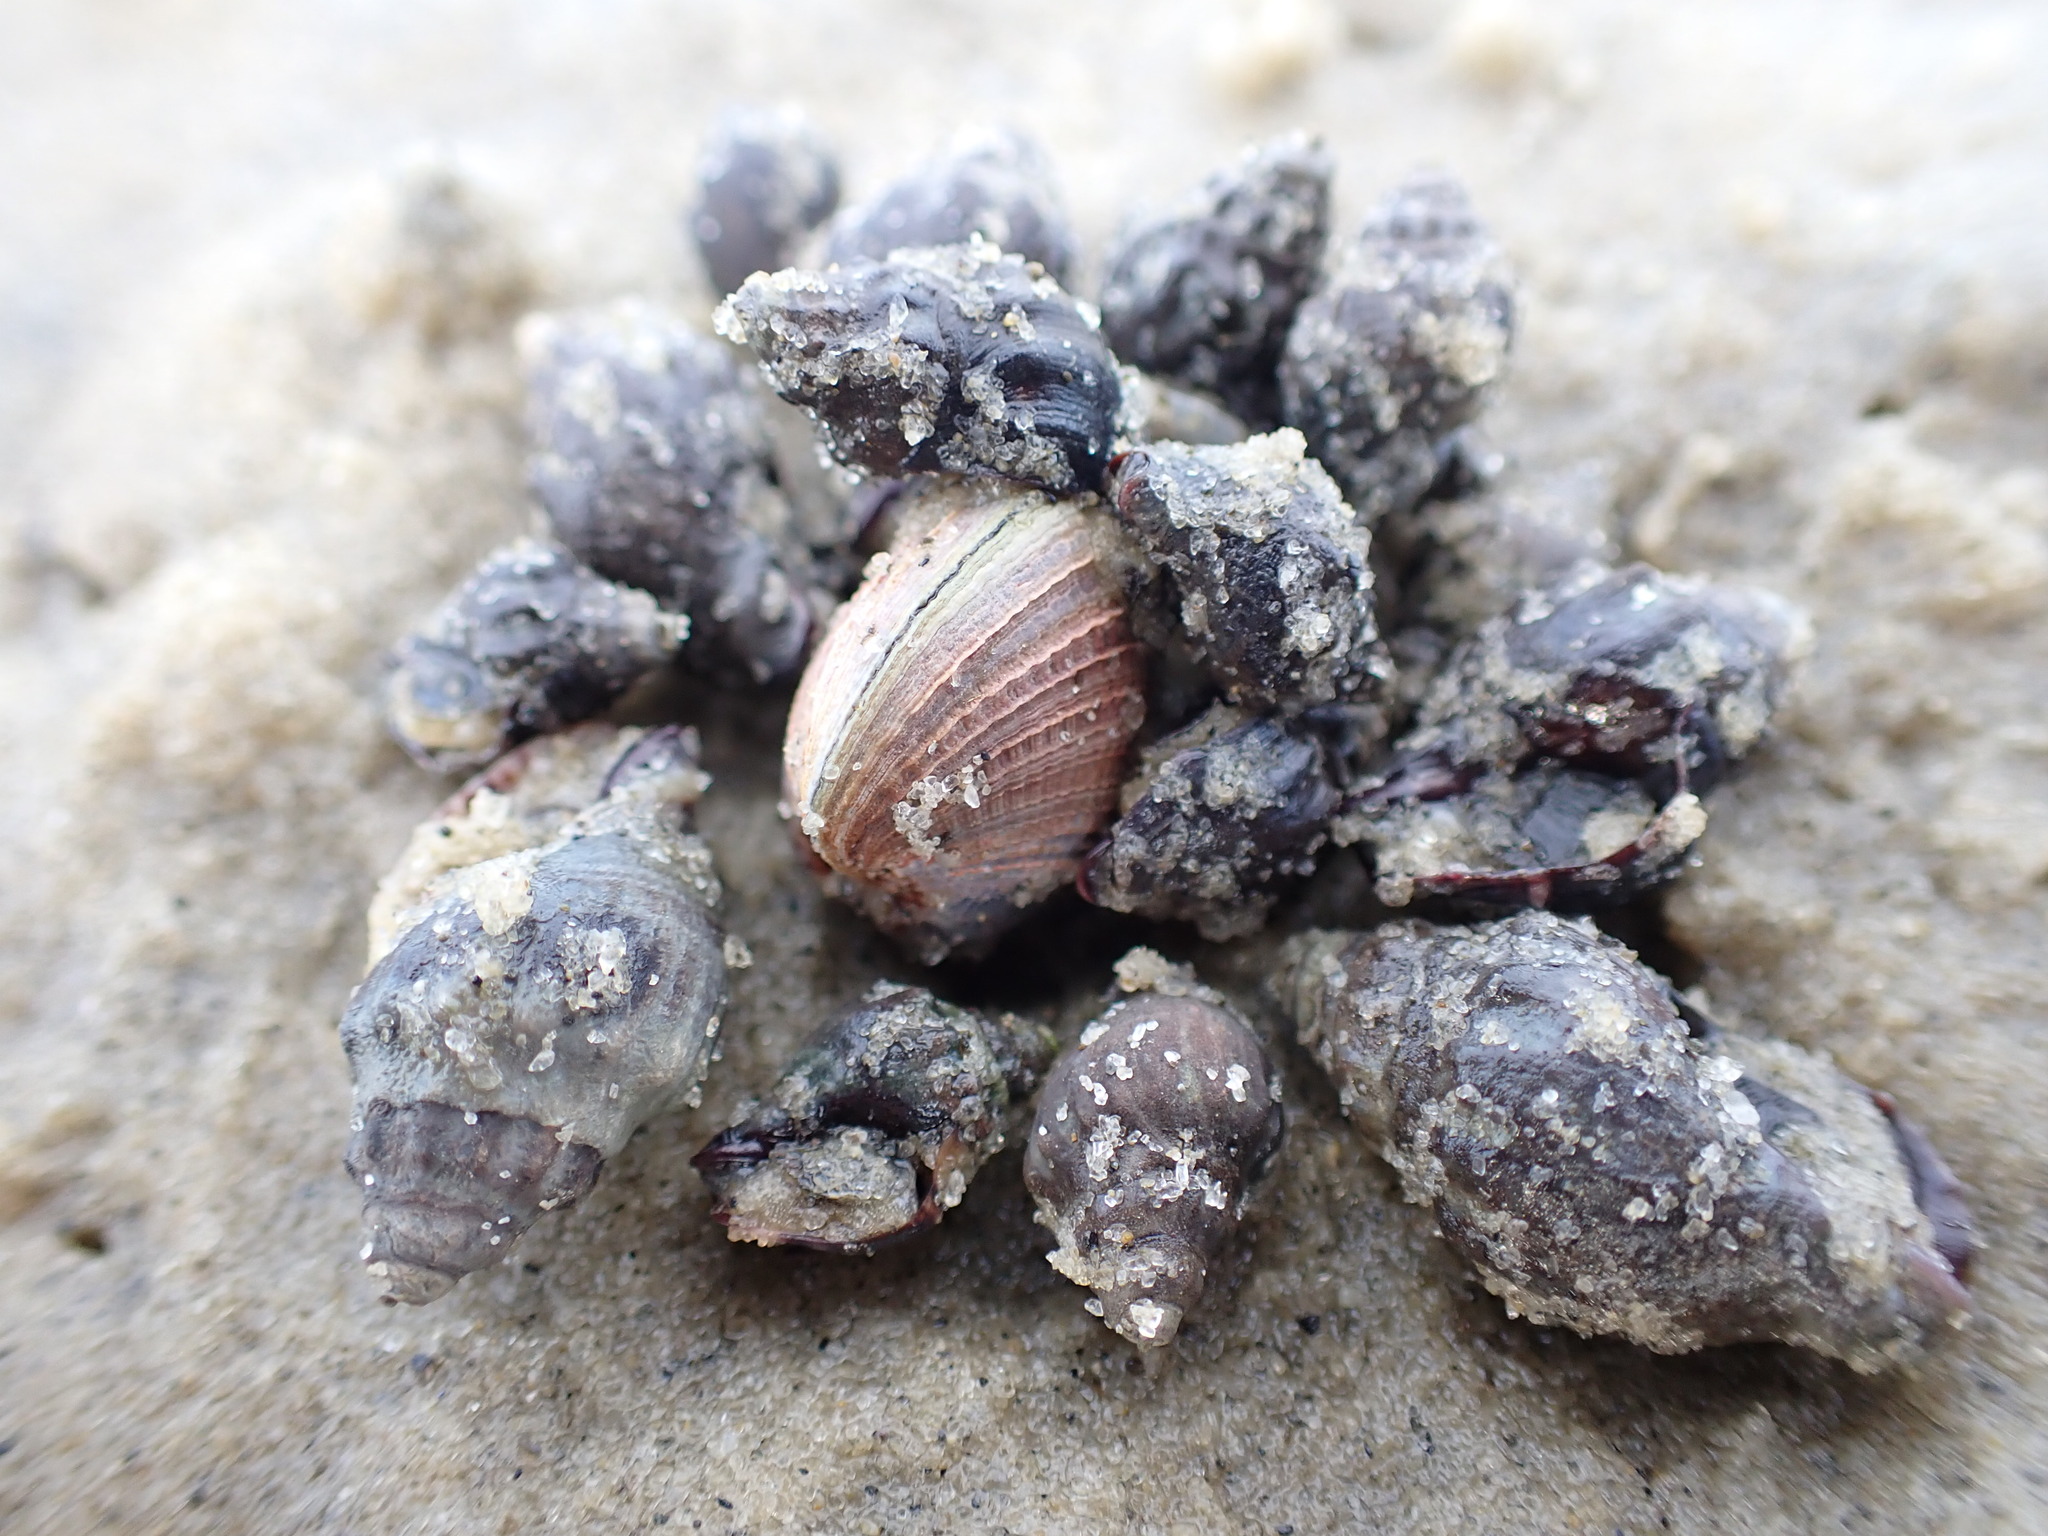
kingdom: Animalia
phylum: Mollusca
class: Gastropoda
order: Neogastropoda
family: Cominellidae
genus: Cominella
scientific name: Cominella glandiformis
